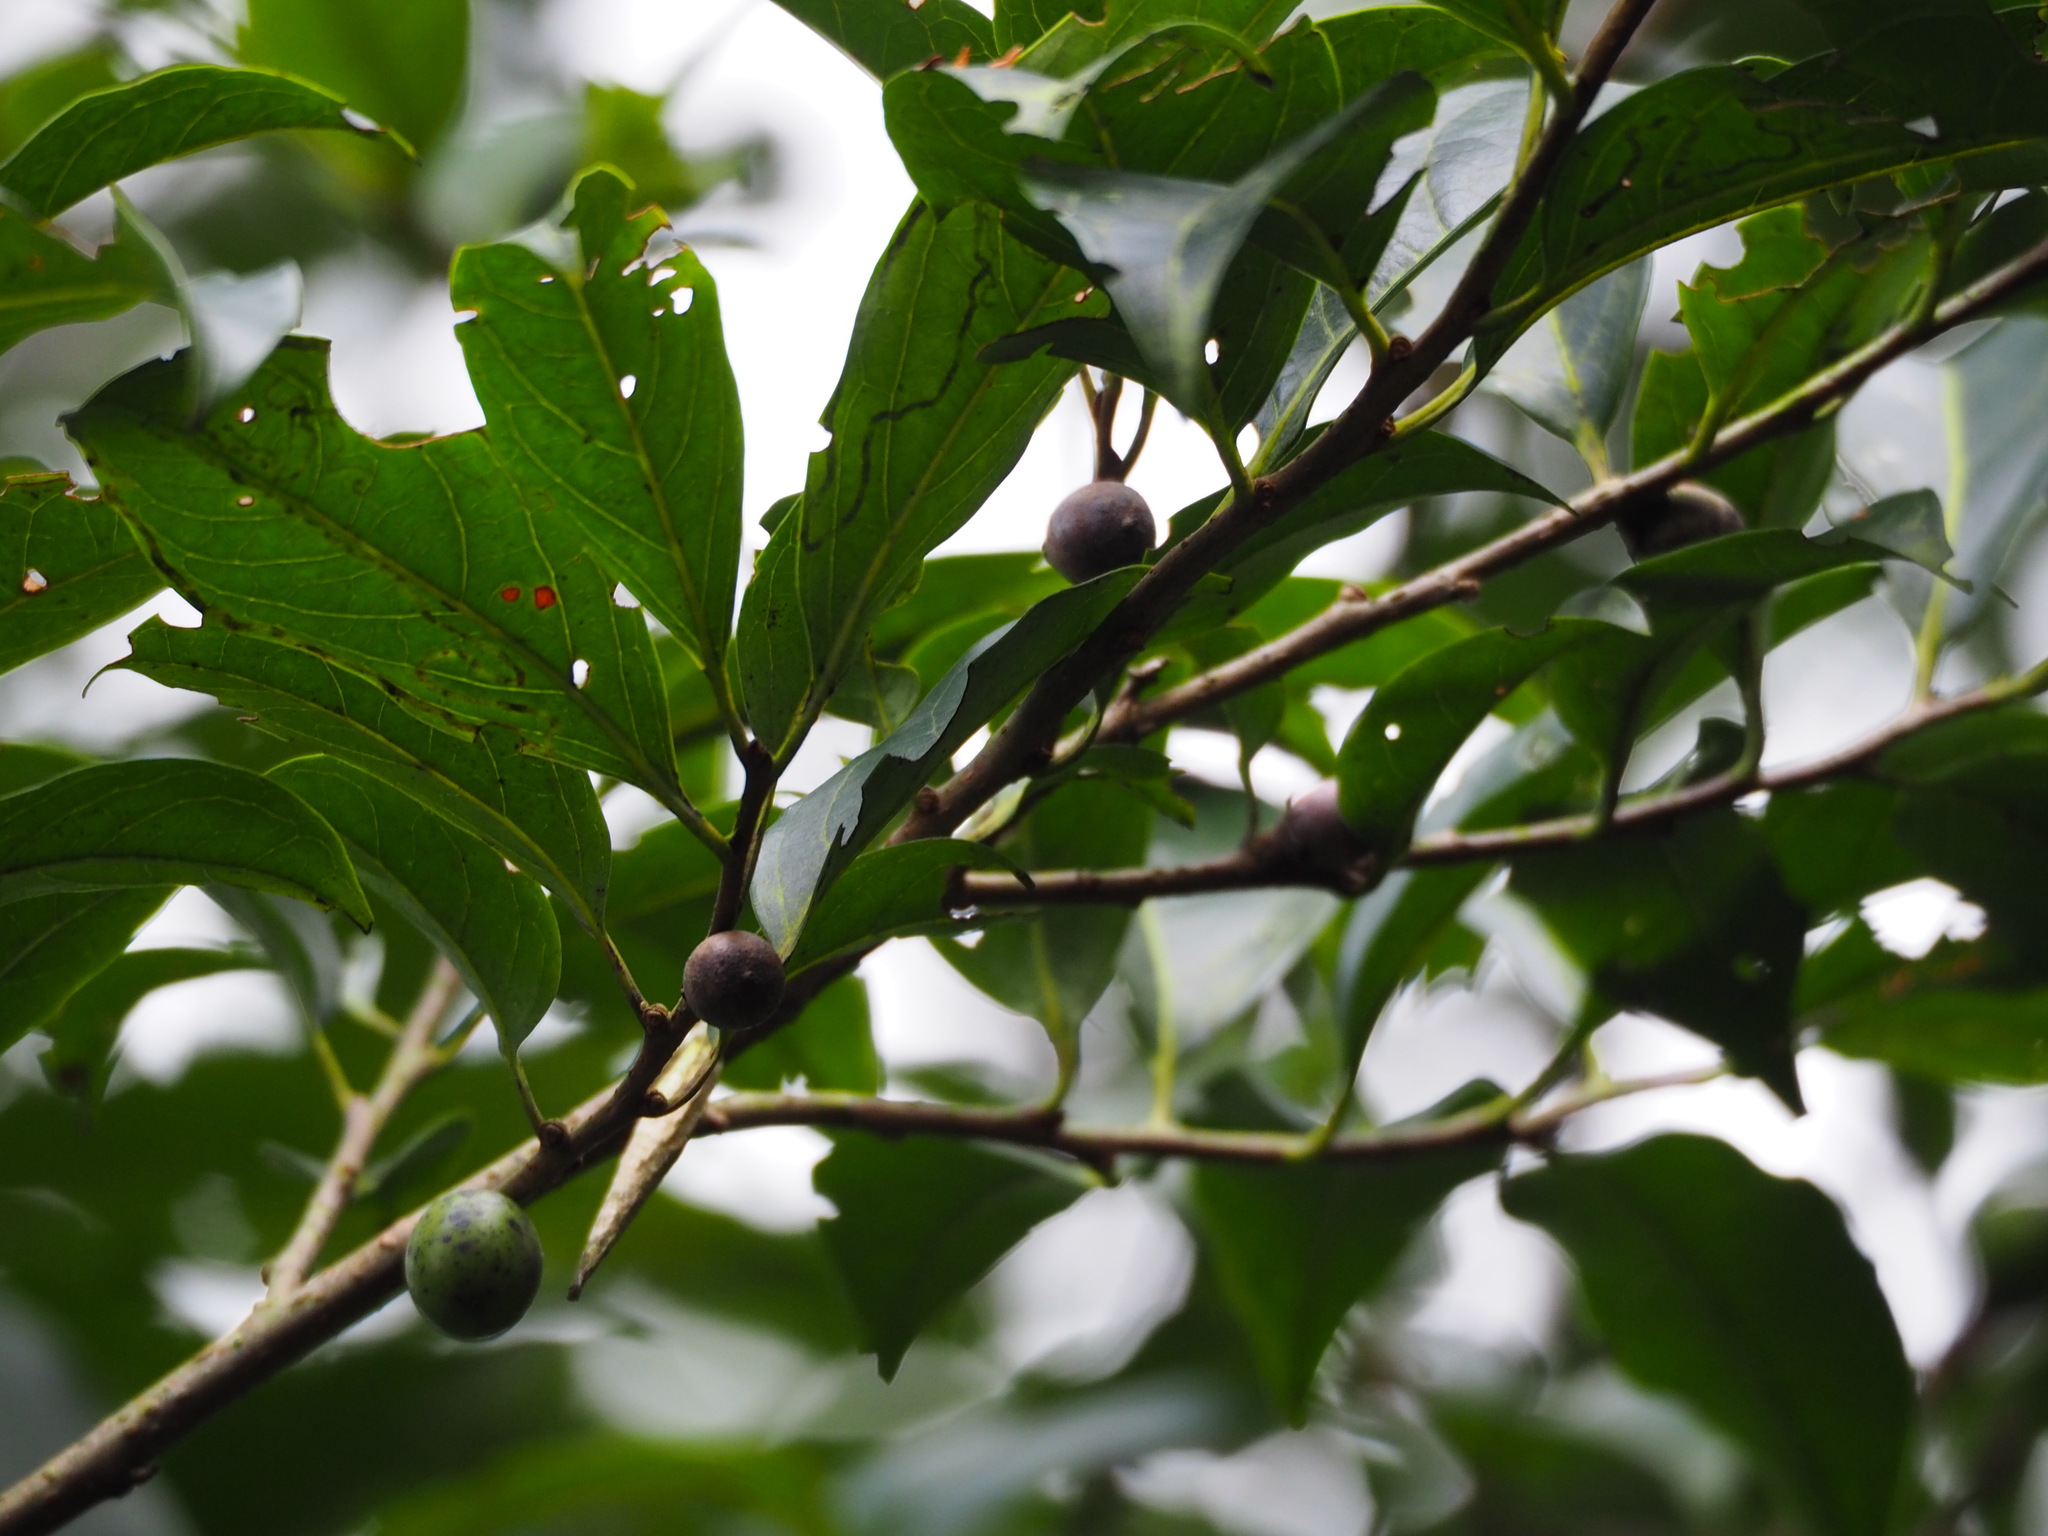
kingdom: Plantae
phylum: Tracheophyta
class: Magnoliopsida
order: Ericales
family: Ebenaceae
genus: Diospyros
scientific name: Diospyros morrisiana
